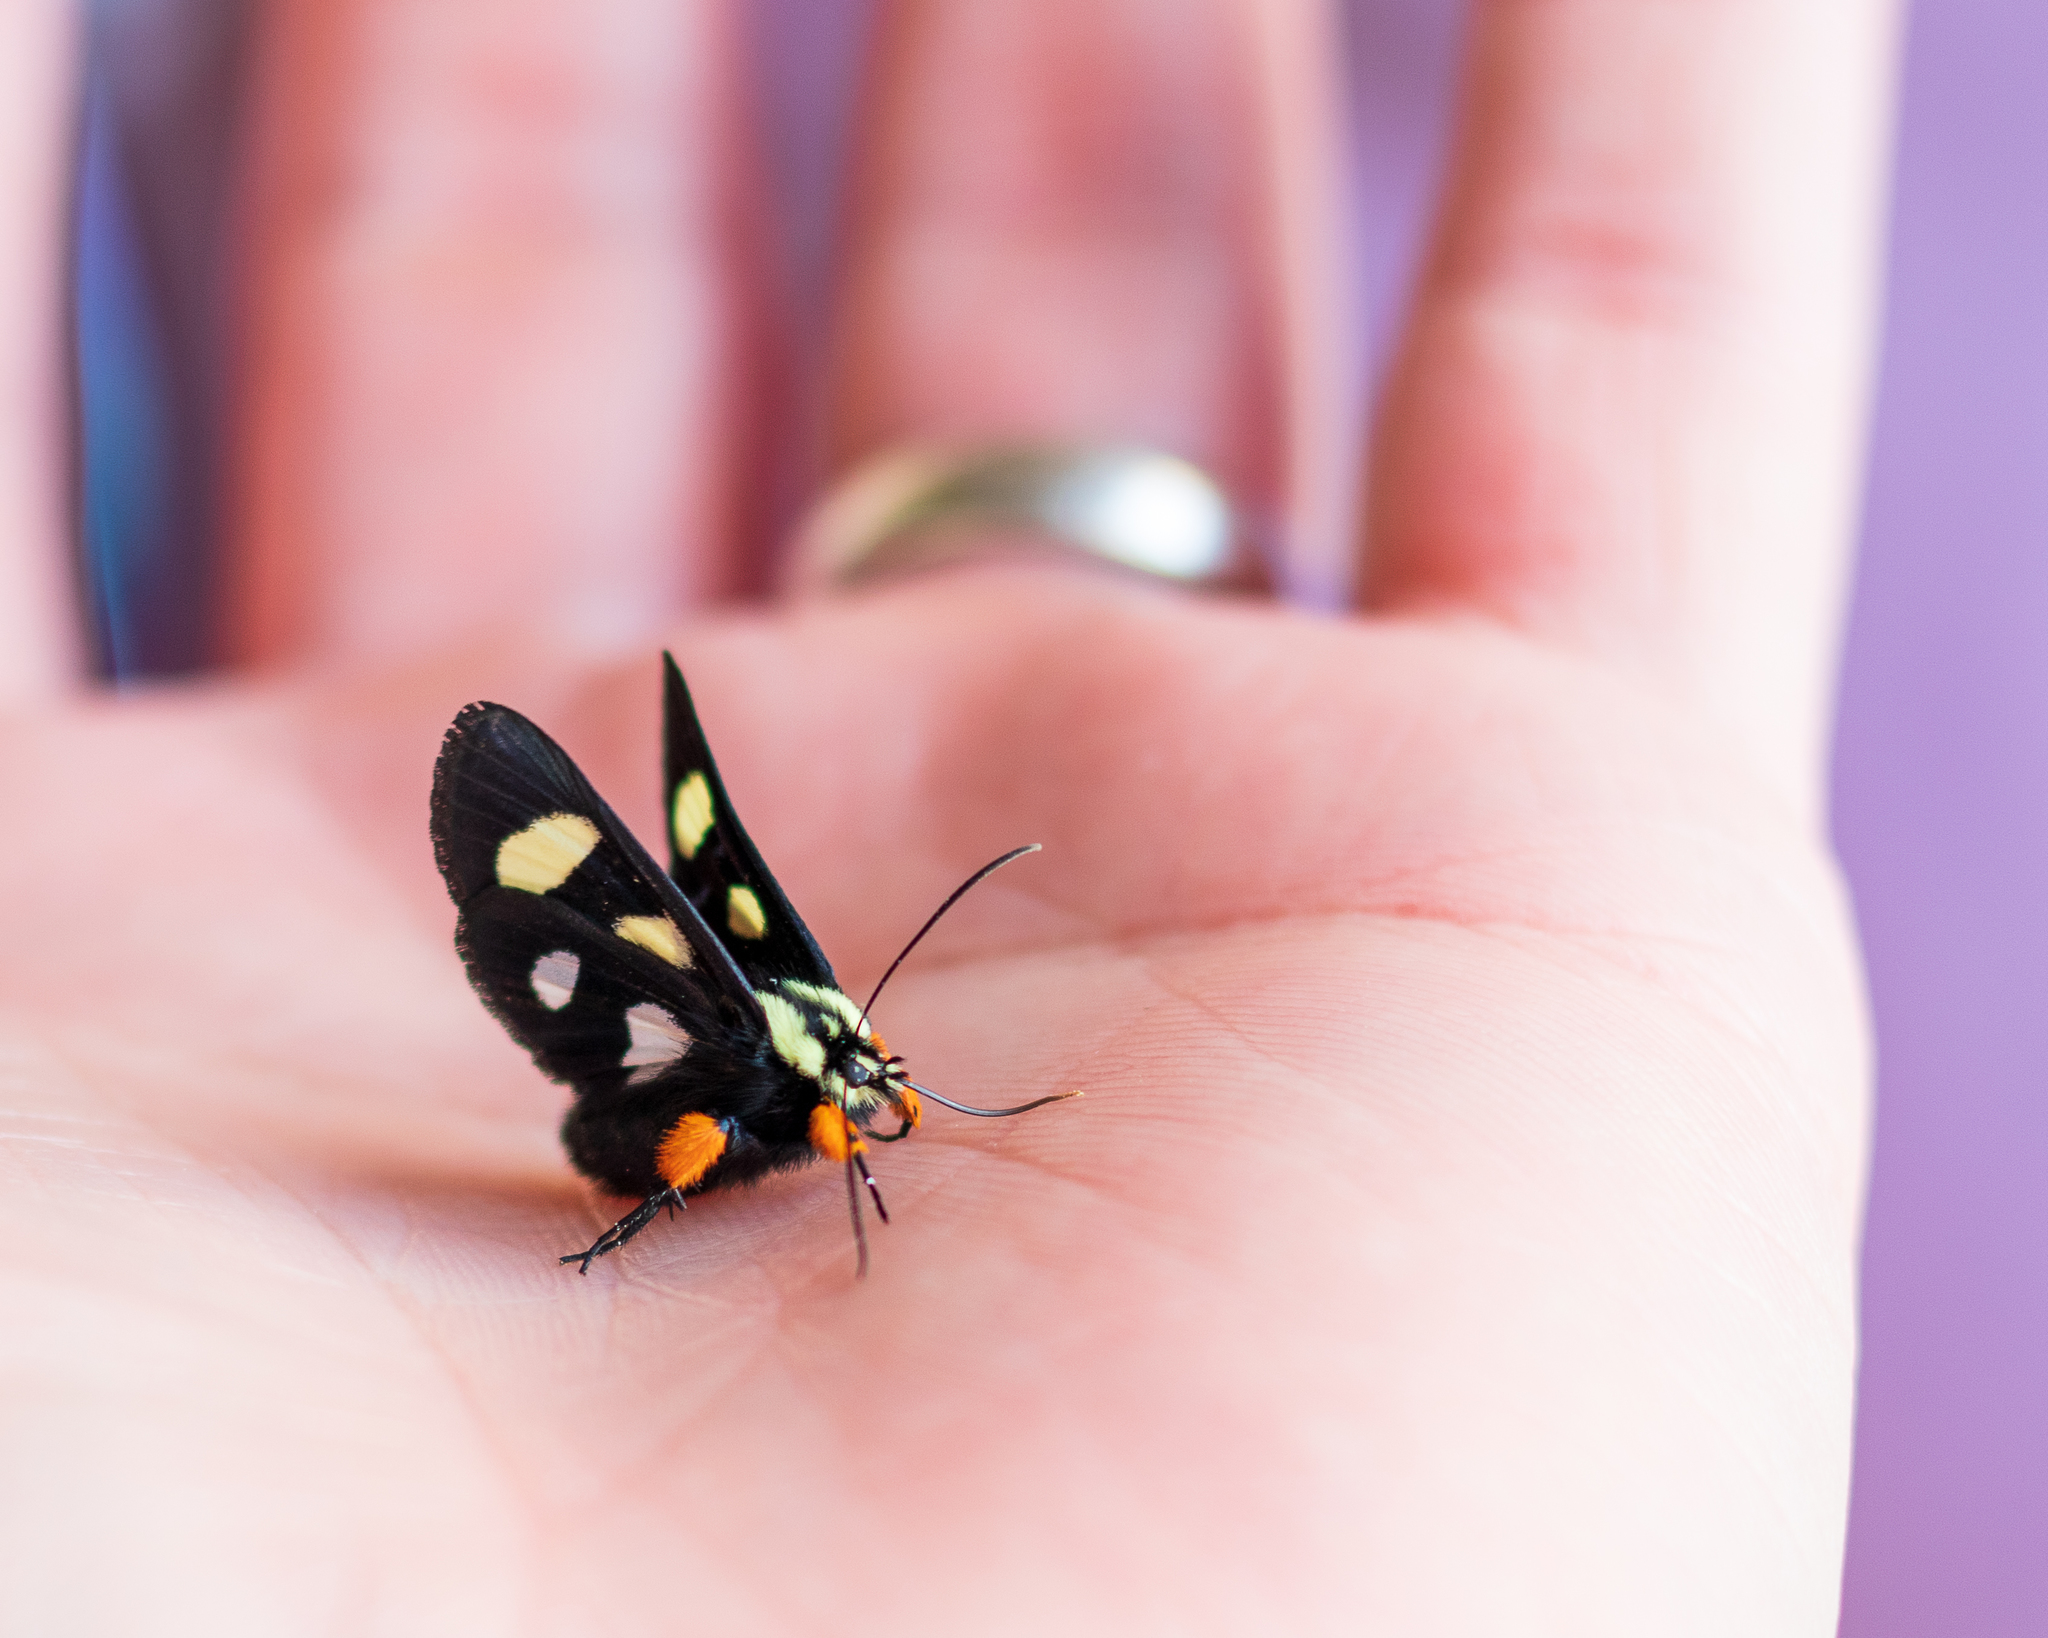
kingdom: Animalia
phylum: Arthropoda
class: Insecta
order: Lepidoptera
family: Noctuidae
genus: Alypia
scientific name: Alypia octomaculata
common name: Eight-spotted forester
